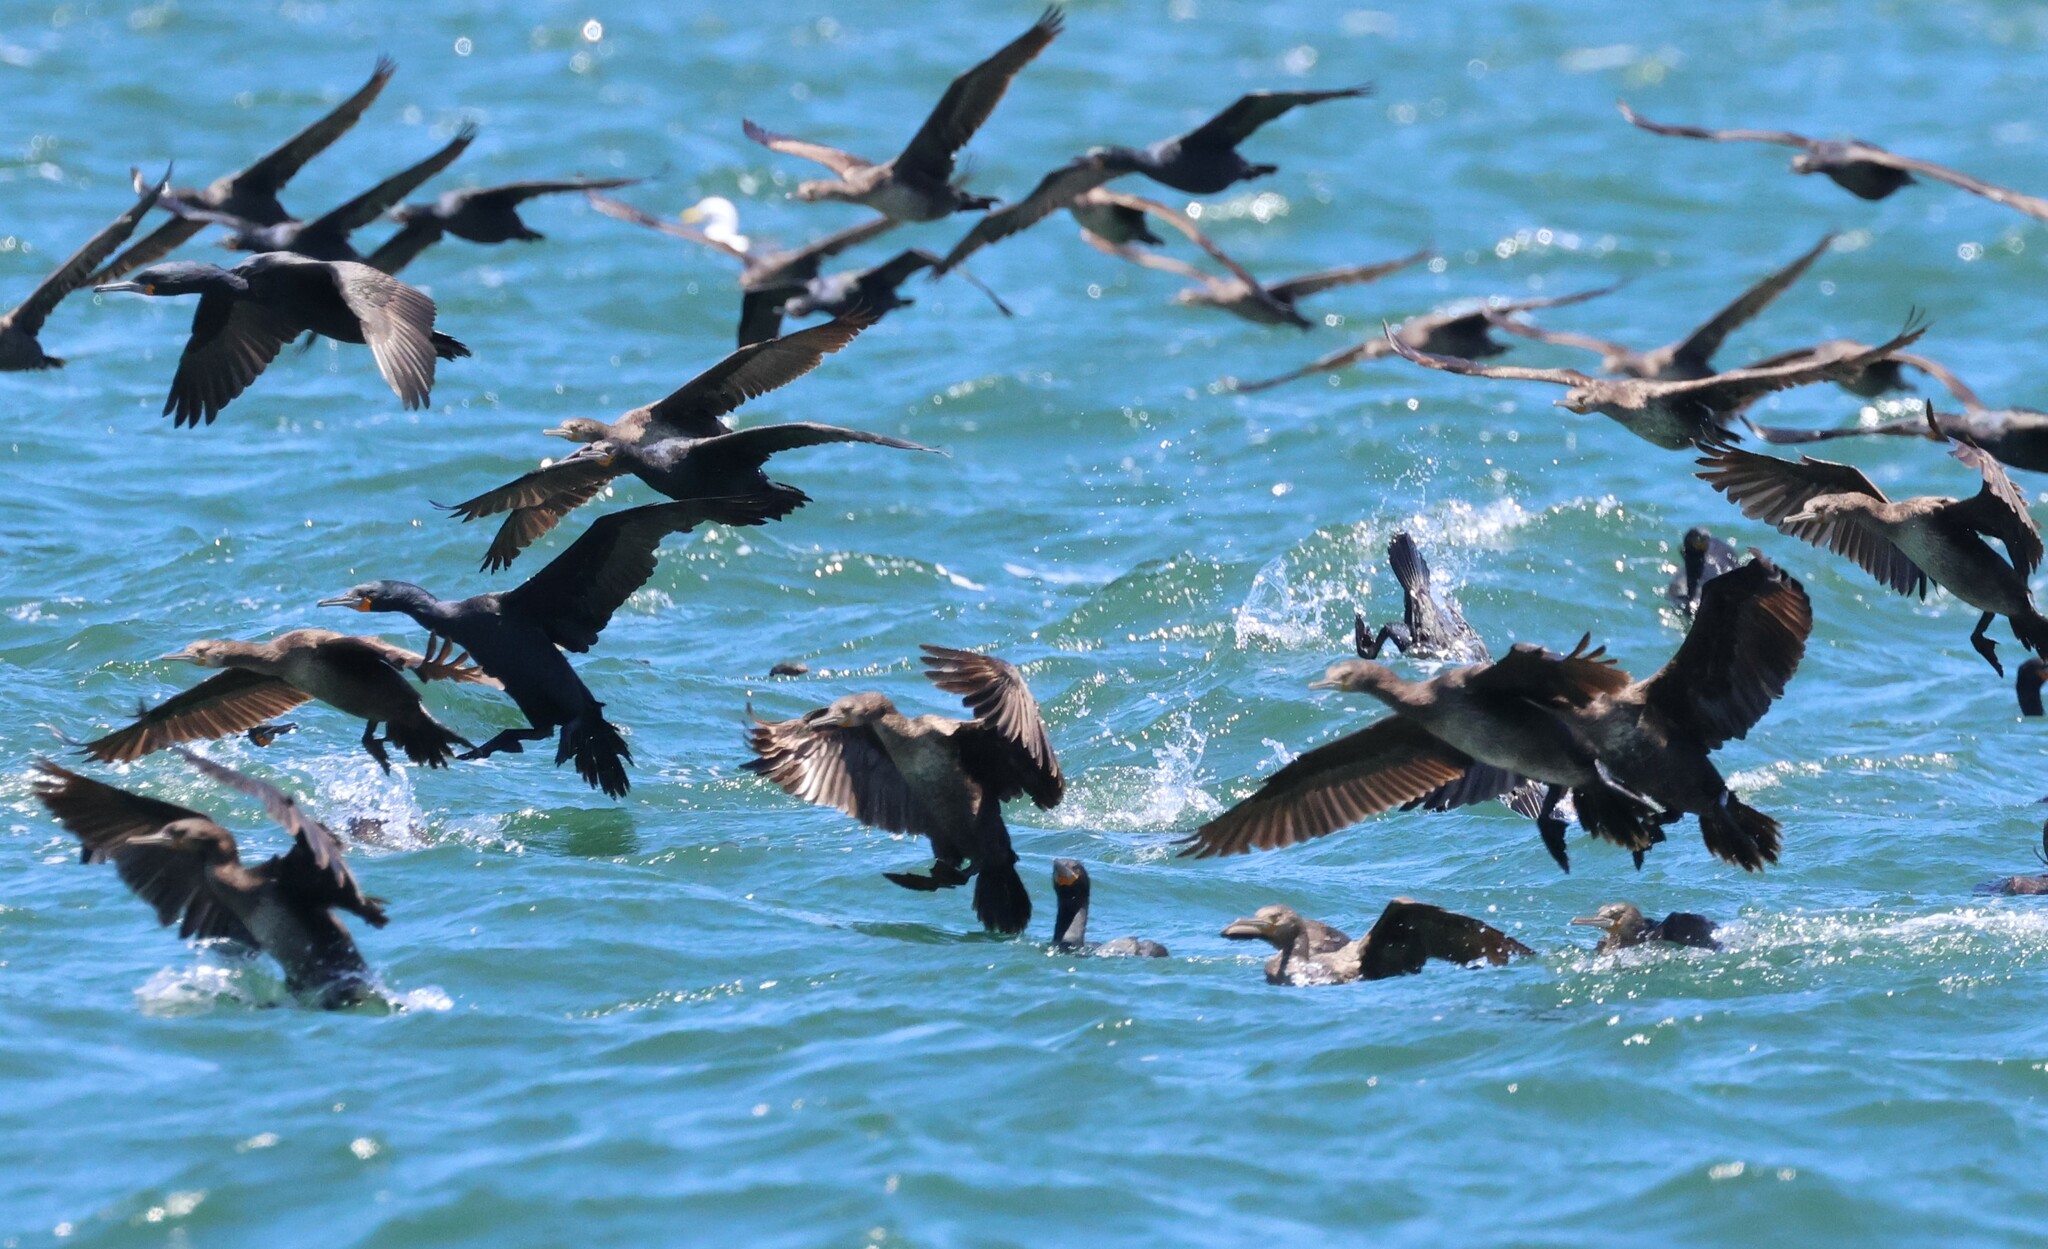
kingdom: Animalia
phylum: Chordata
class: Aves
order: Suliformes
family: Phalacrocoracidae
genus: Phalacrocorax
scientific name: Phalacrocorax capensis
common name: Cape cormorant
